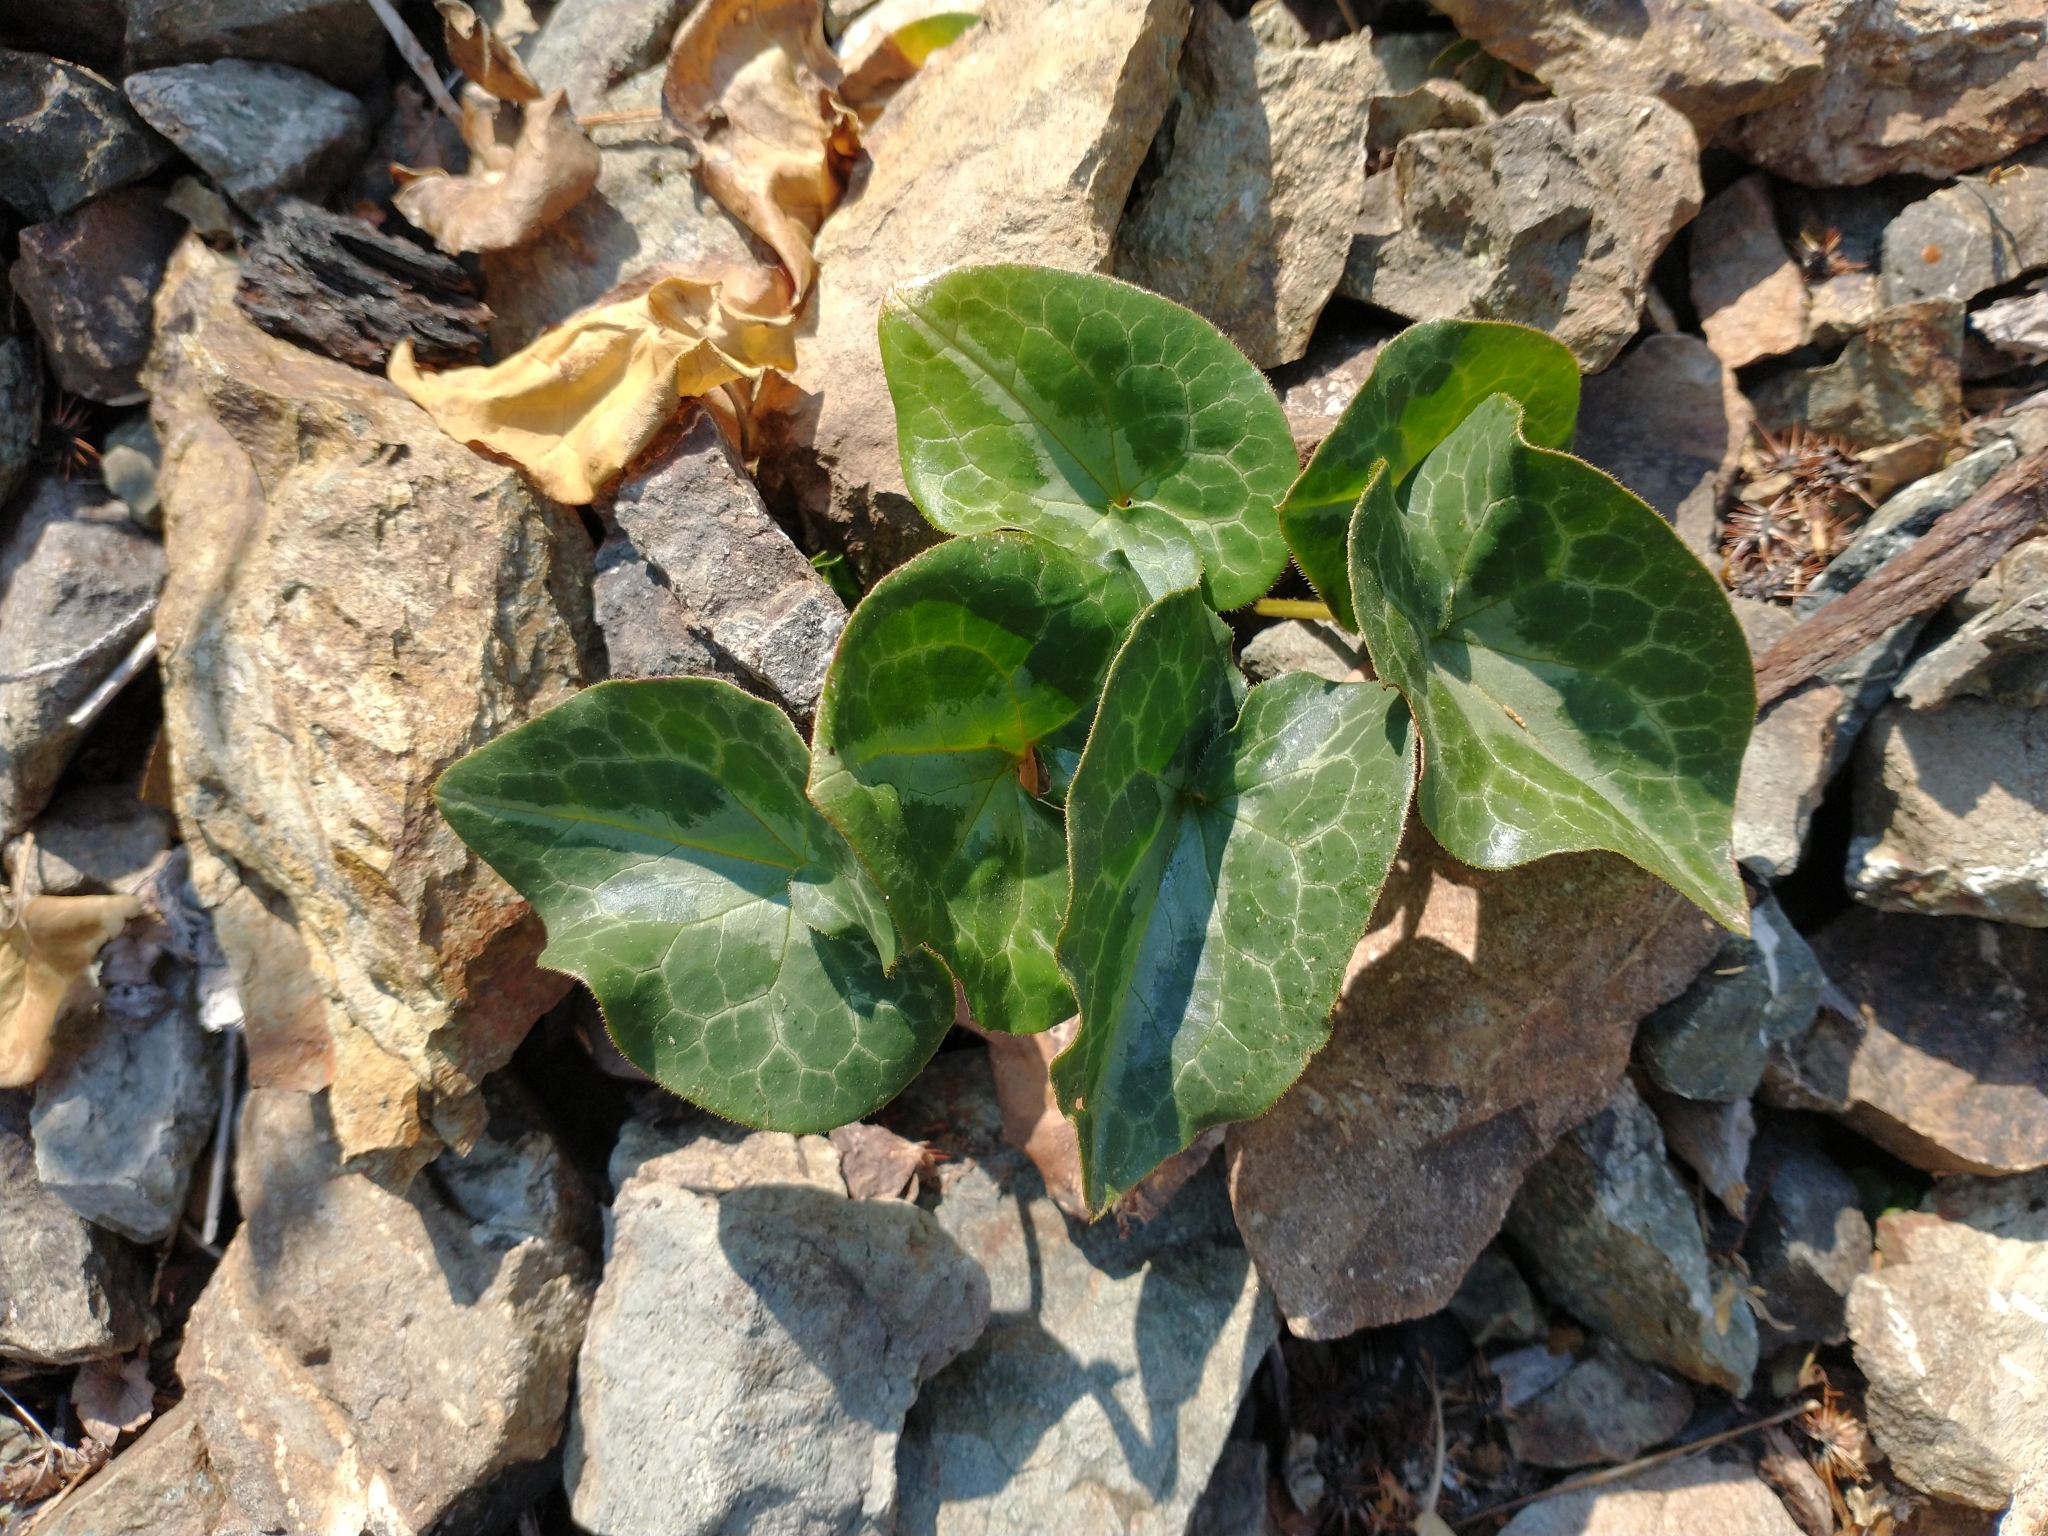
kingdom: Plantae
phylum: Tracheophyta
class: Magnoliopsida
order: Piperales
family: Aristolochiaceae
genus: Asarum
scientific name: Asarum marmoratum
